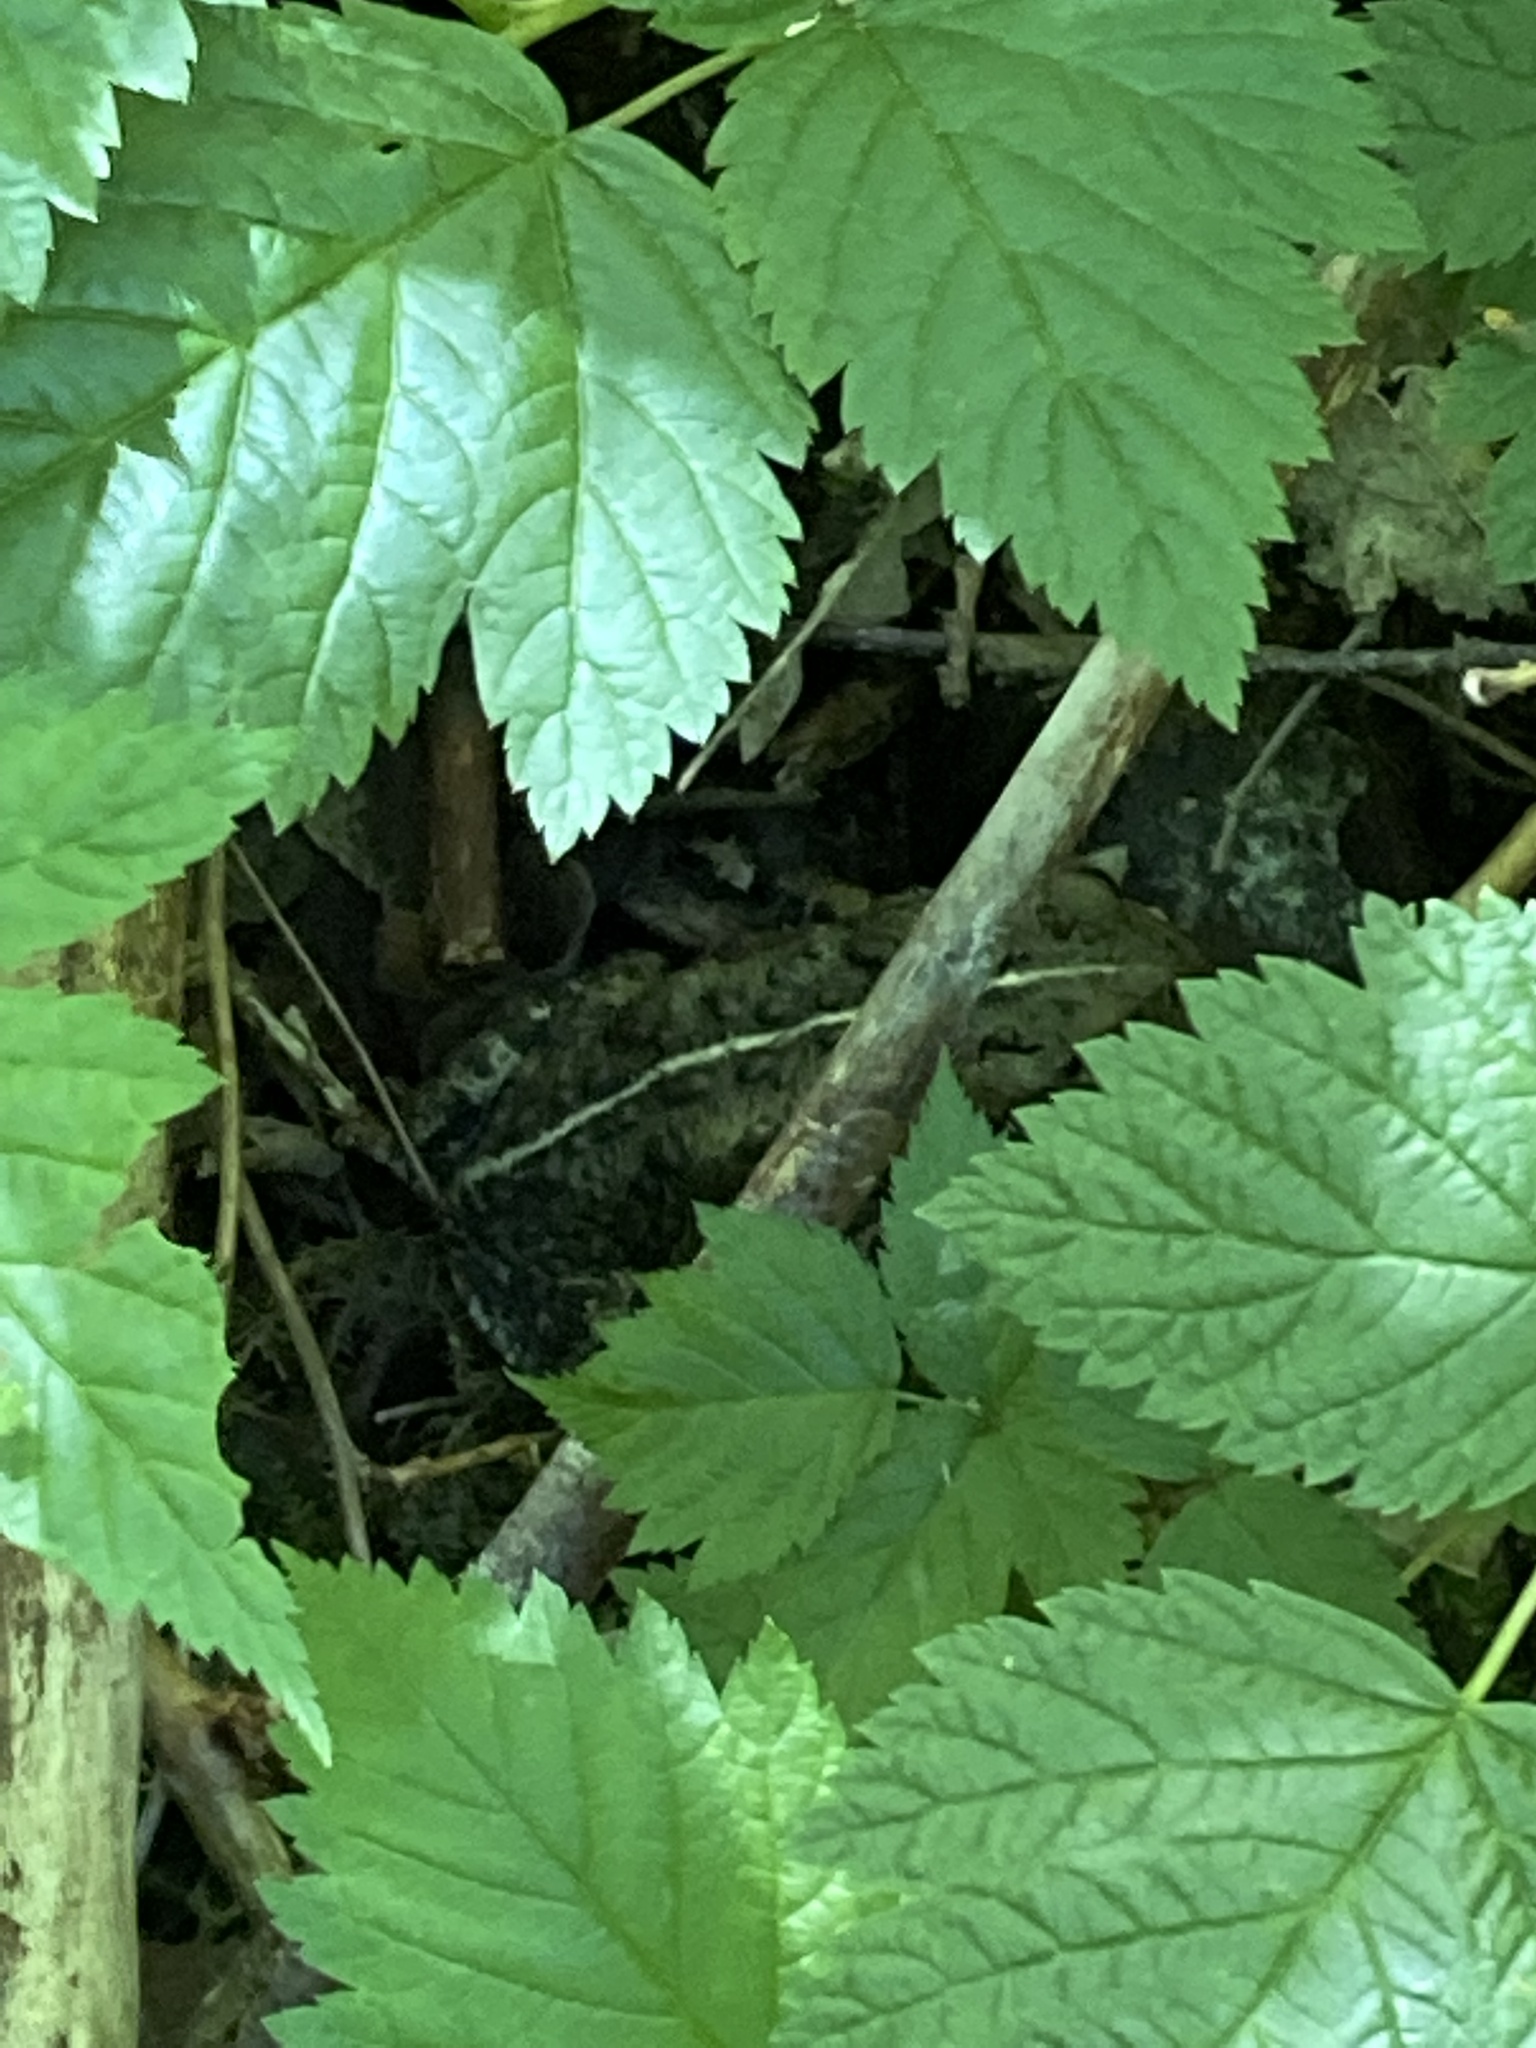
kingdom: Animalia
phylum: Chordata
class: Amphibia
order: Anura
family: Bufonidae
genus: Anaxyrus
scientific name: Anaxyrus boreas
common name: Western toad
